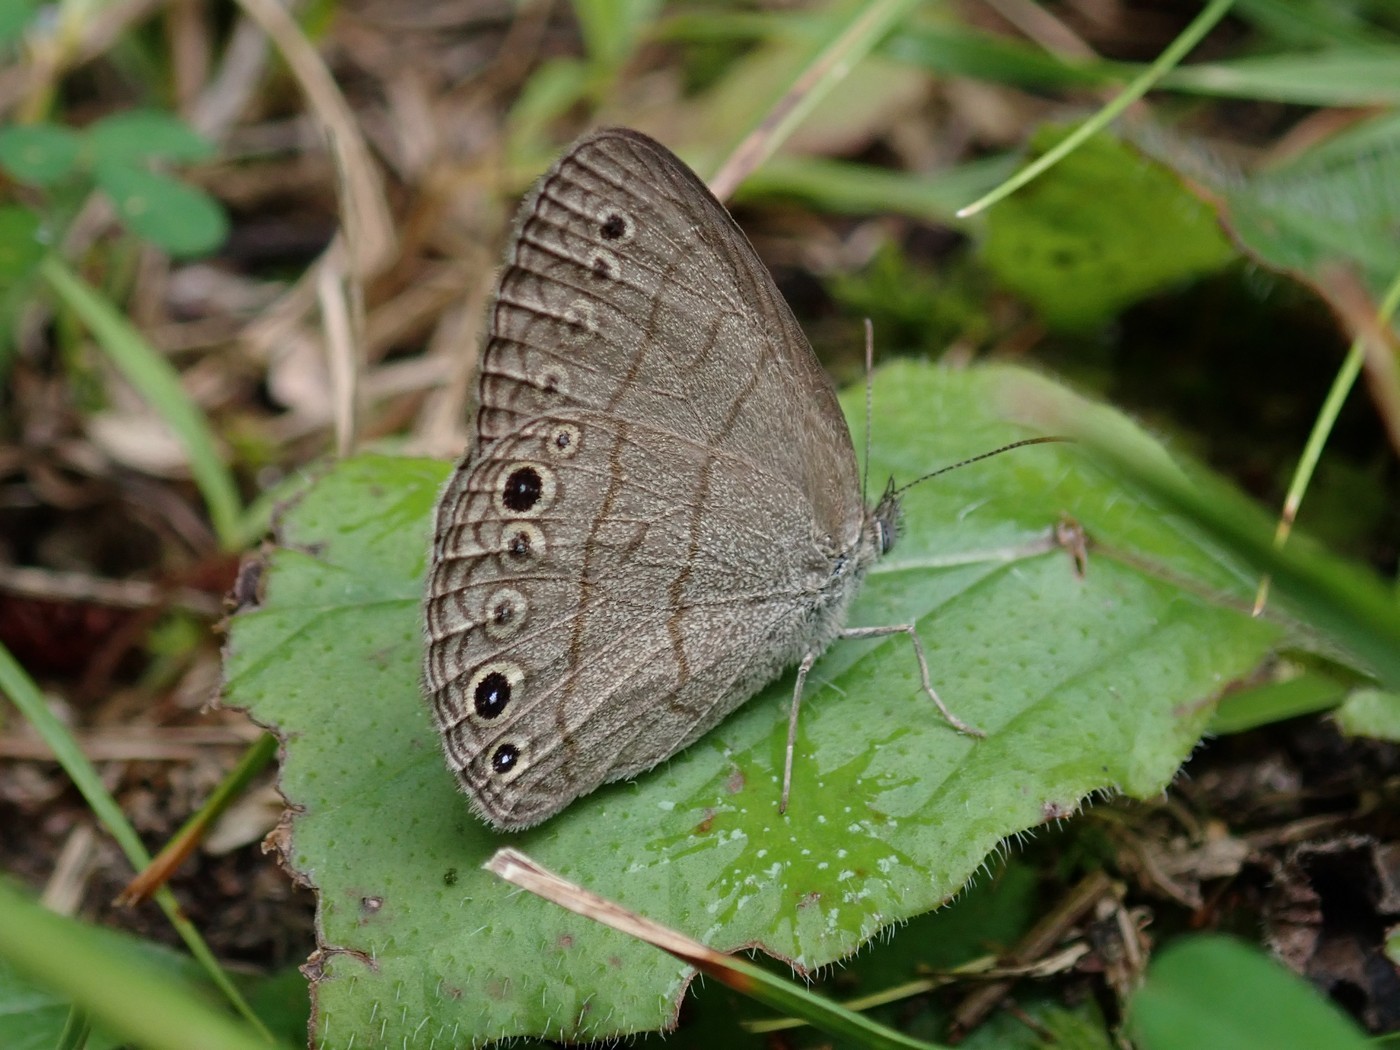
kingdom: Animalia
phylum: Arthropoda
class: Insecta
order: Lepidoptera
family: Nymphalidae
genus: Hermeuptychia
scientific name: Hermeuptychia hermes
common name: Hermes satyr
